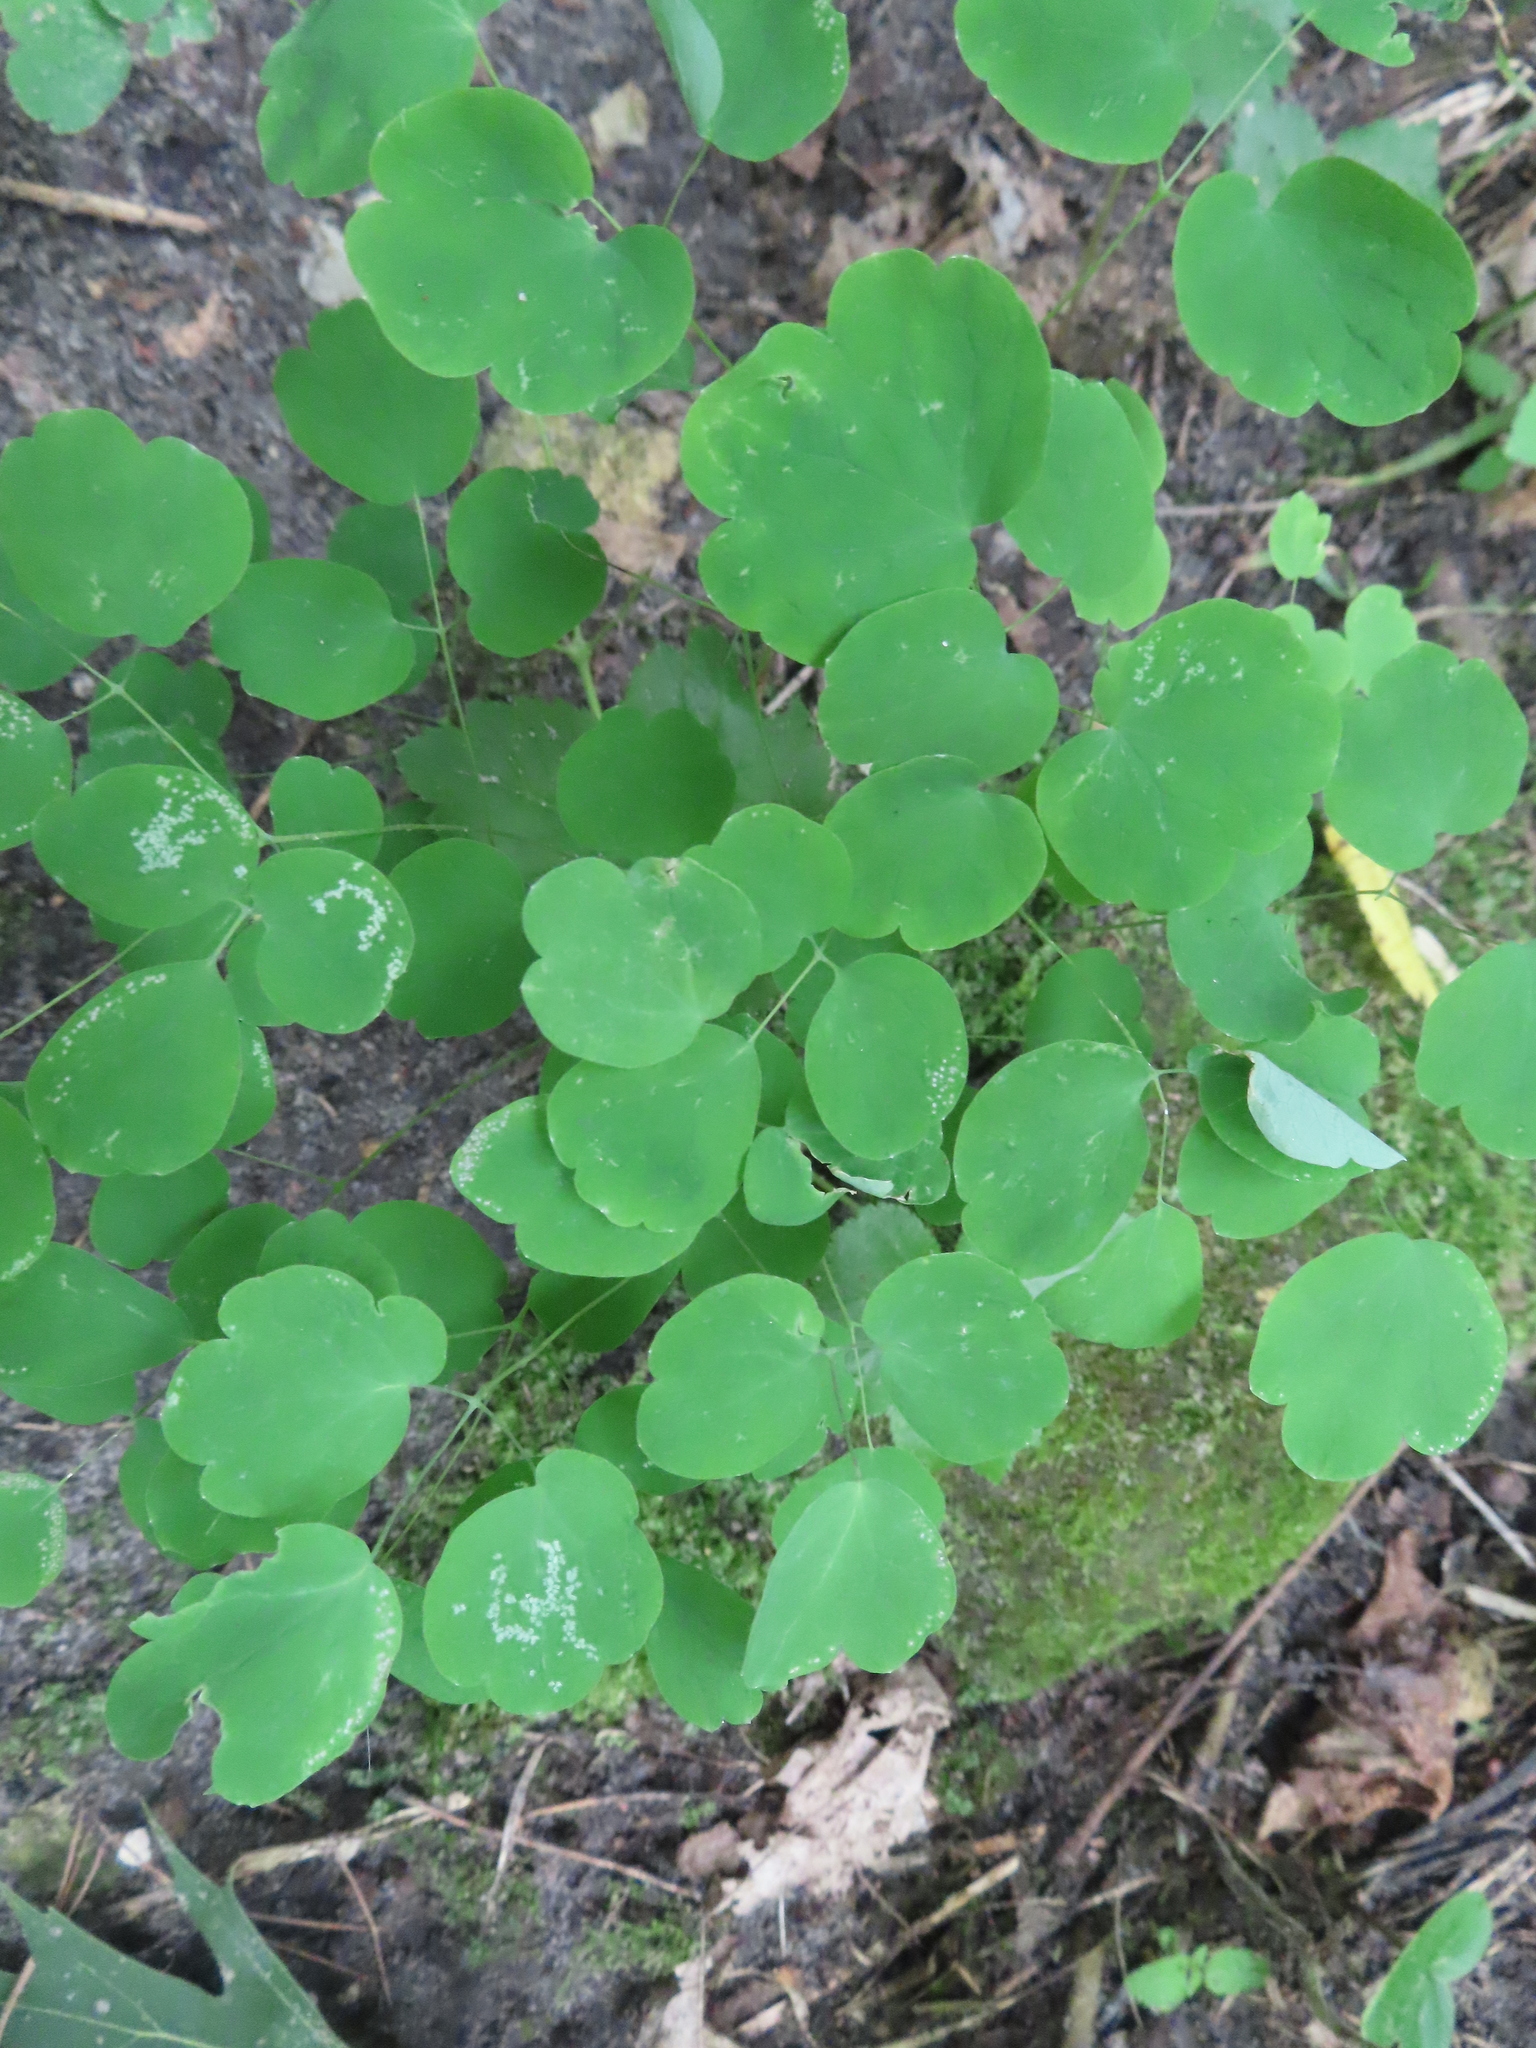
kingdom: Plantae
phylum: Tracheophyta
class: Magnoliopsida
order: Ranunculales
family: Ranunculaceae
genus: Thalictrum
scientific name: Thalictrum dioicum
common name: Early meadow-rue
